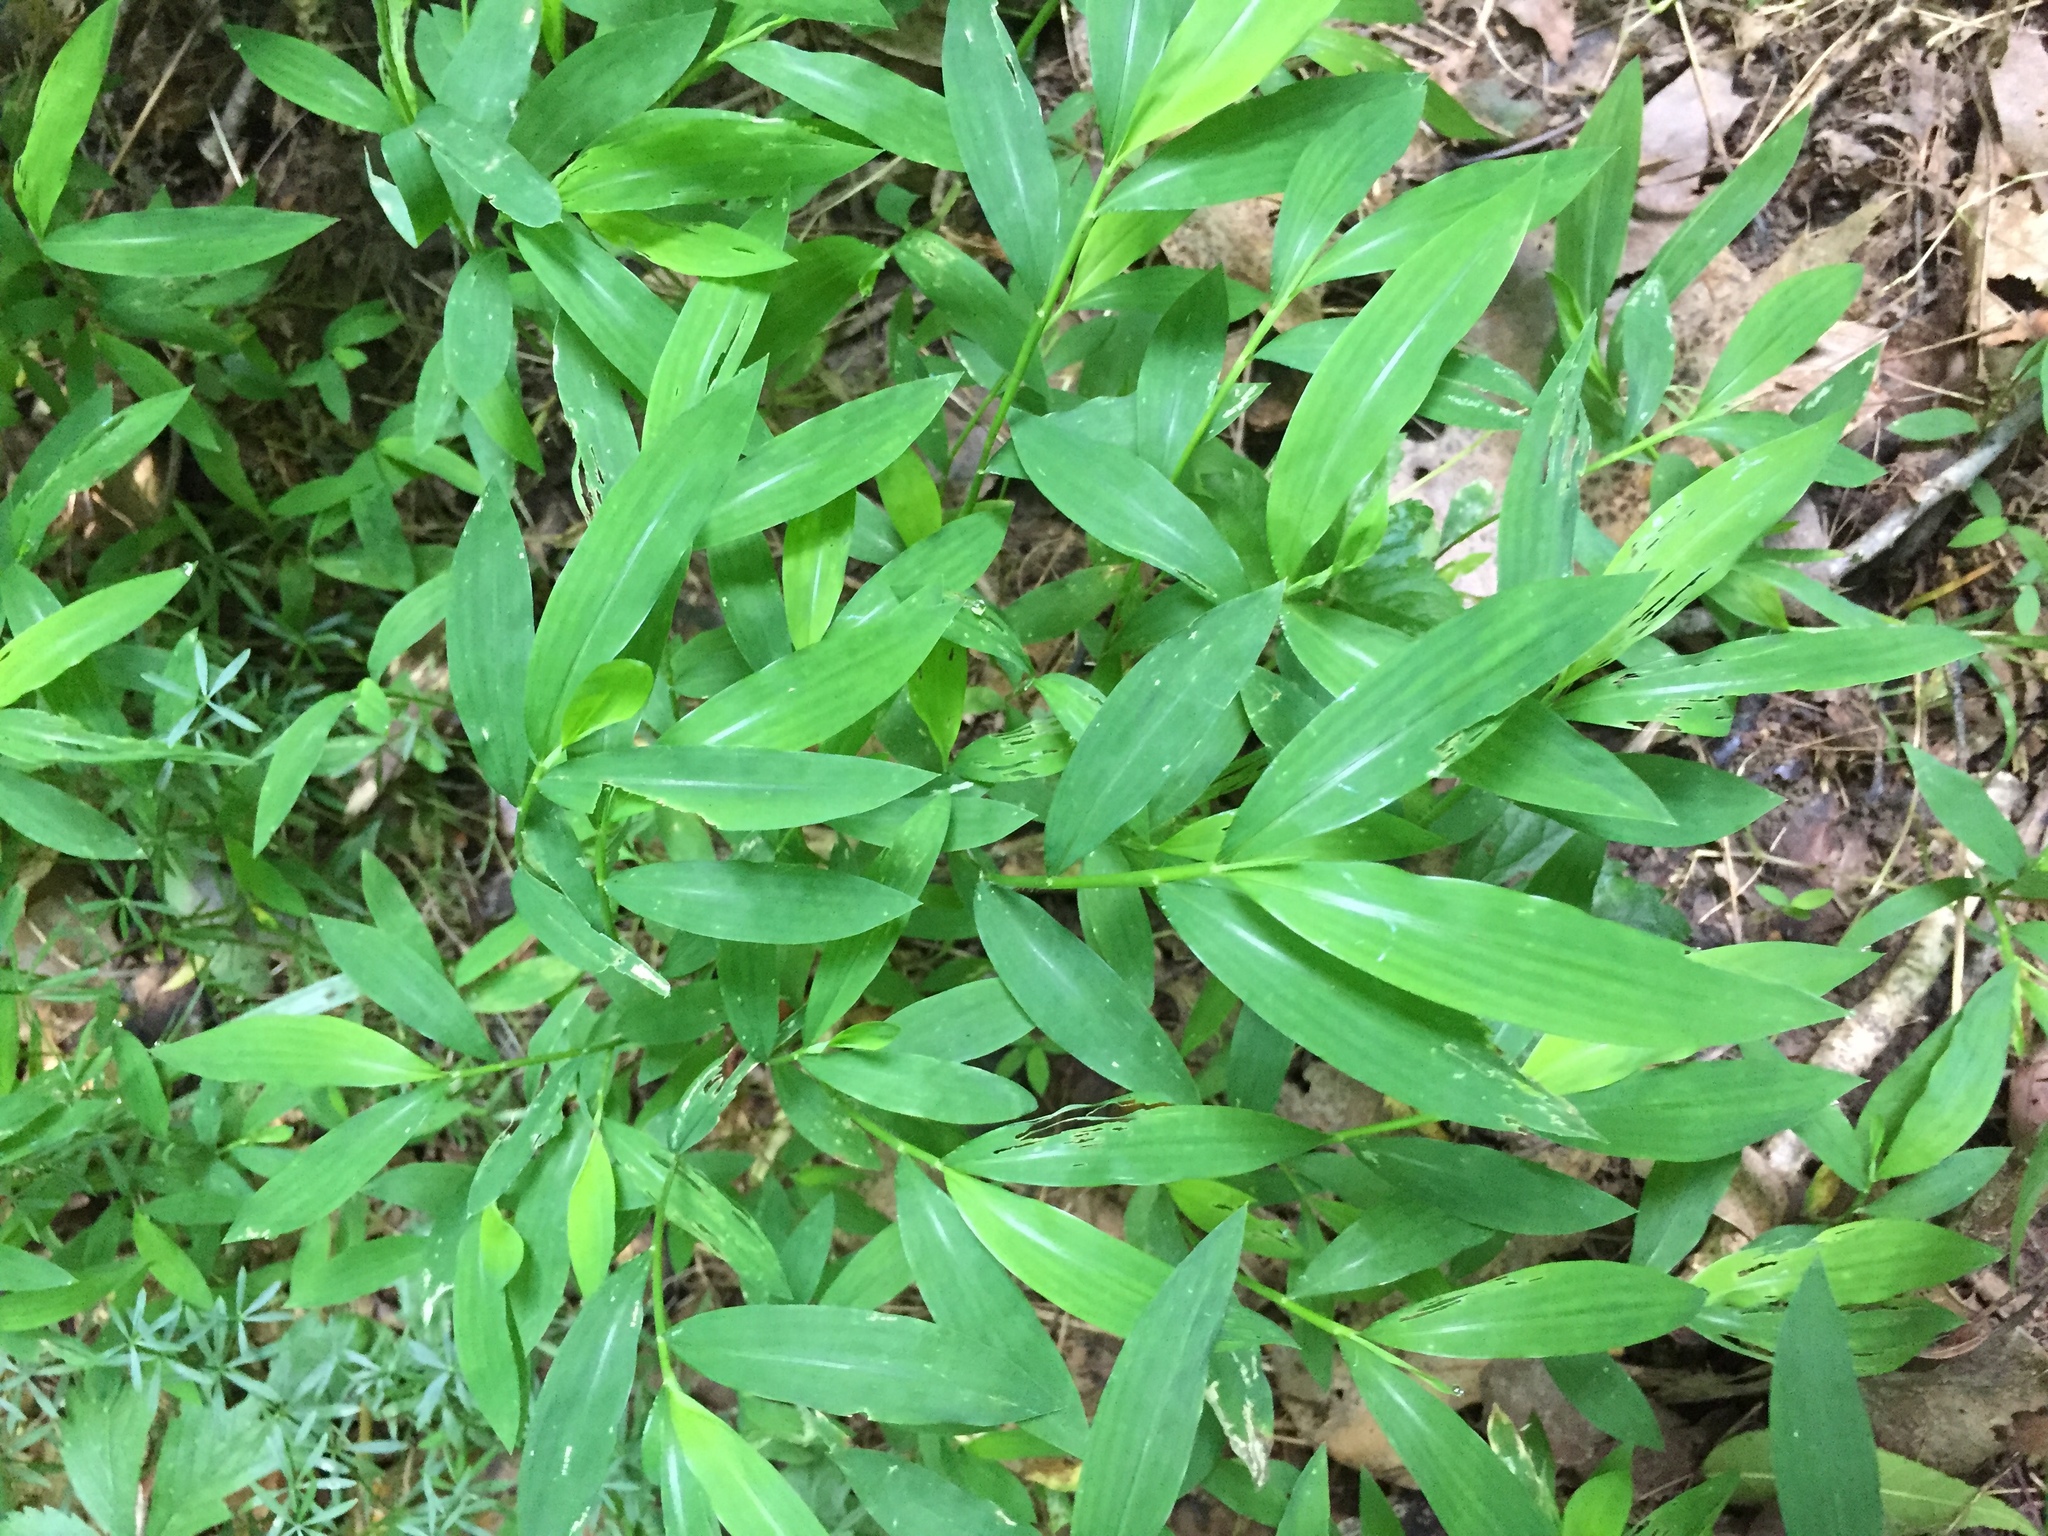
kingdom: Plantae
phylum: Tracheophyta
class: Liliopsida
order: Poales
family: Poaceae
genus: Microstegium
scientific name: Microstegium vimineum
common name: Japanese stiltgrass
